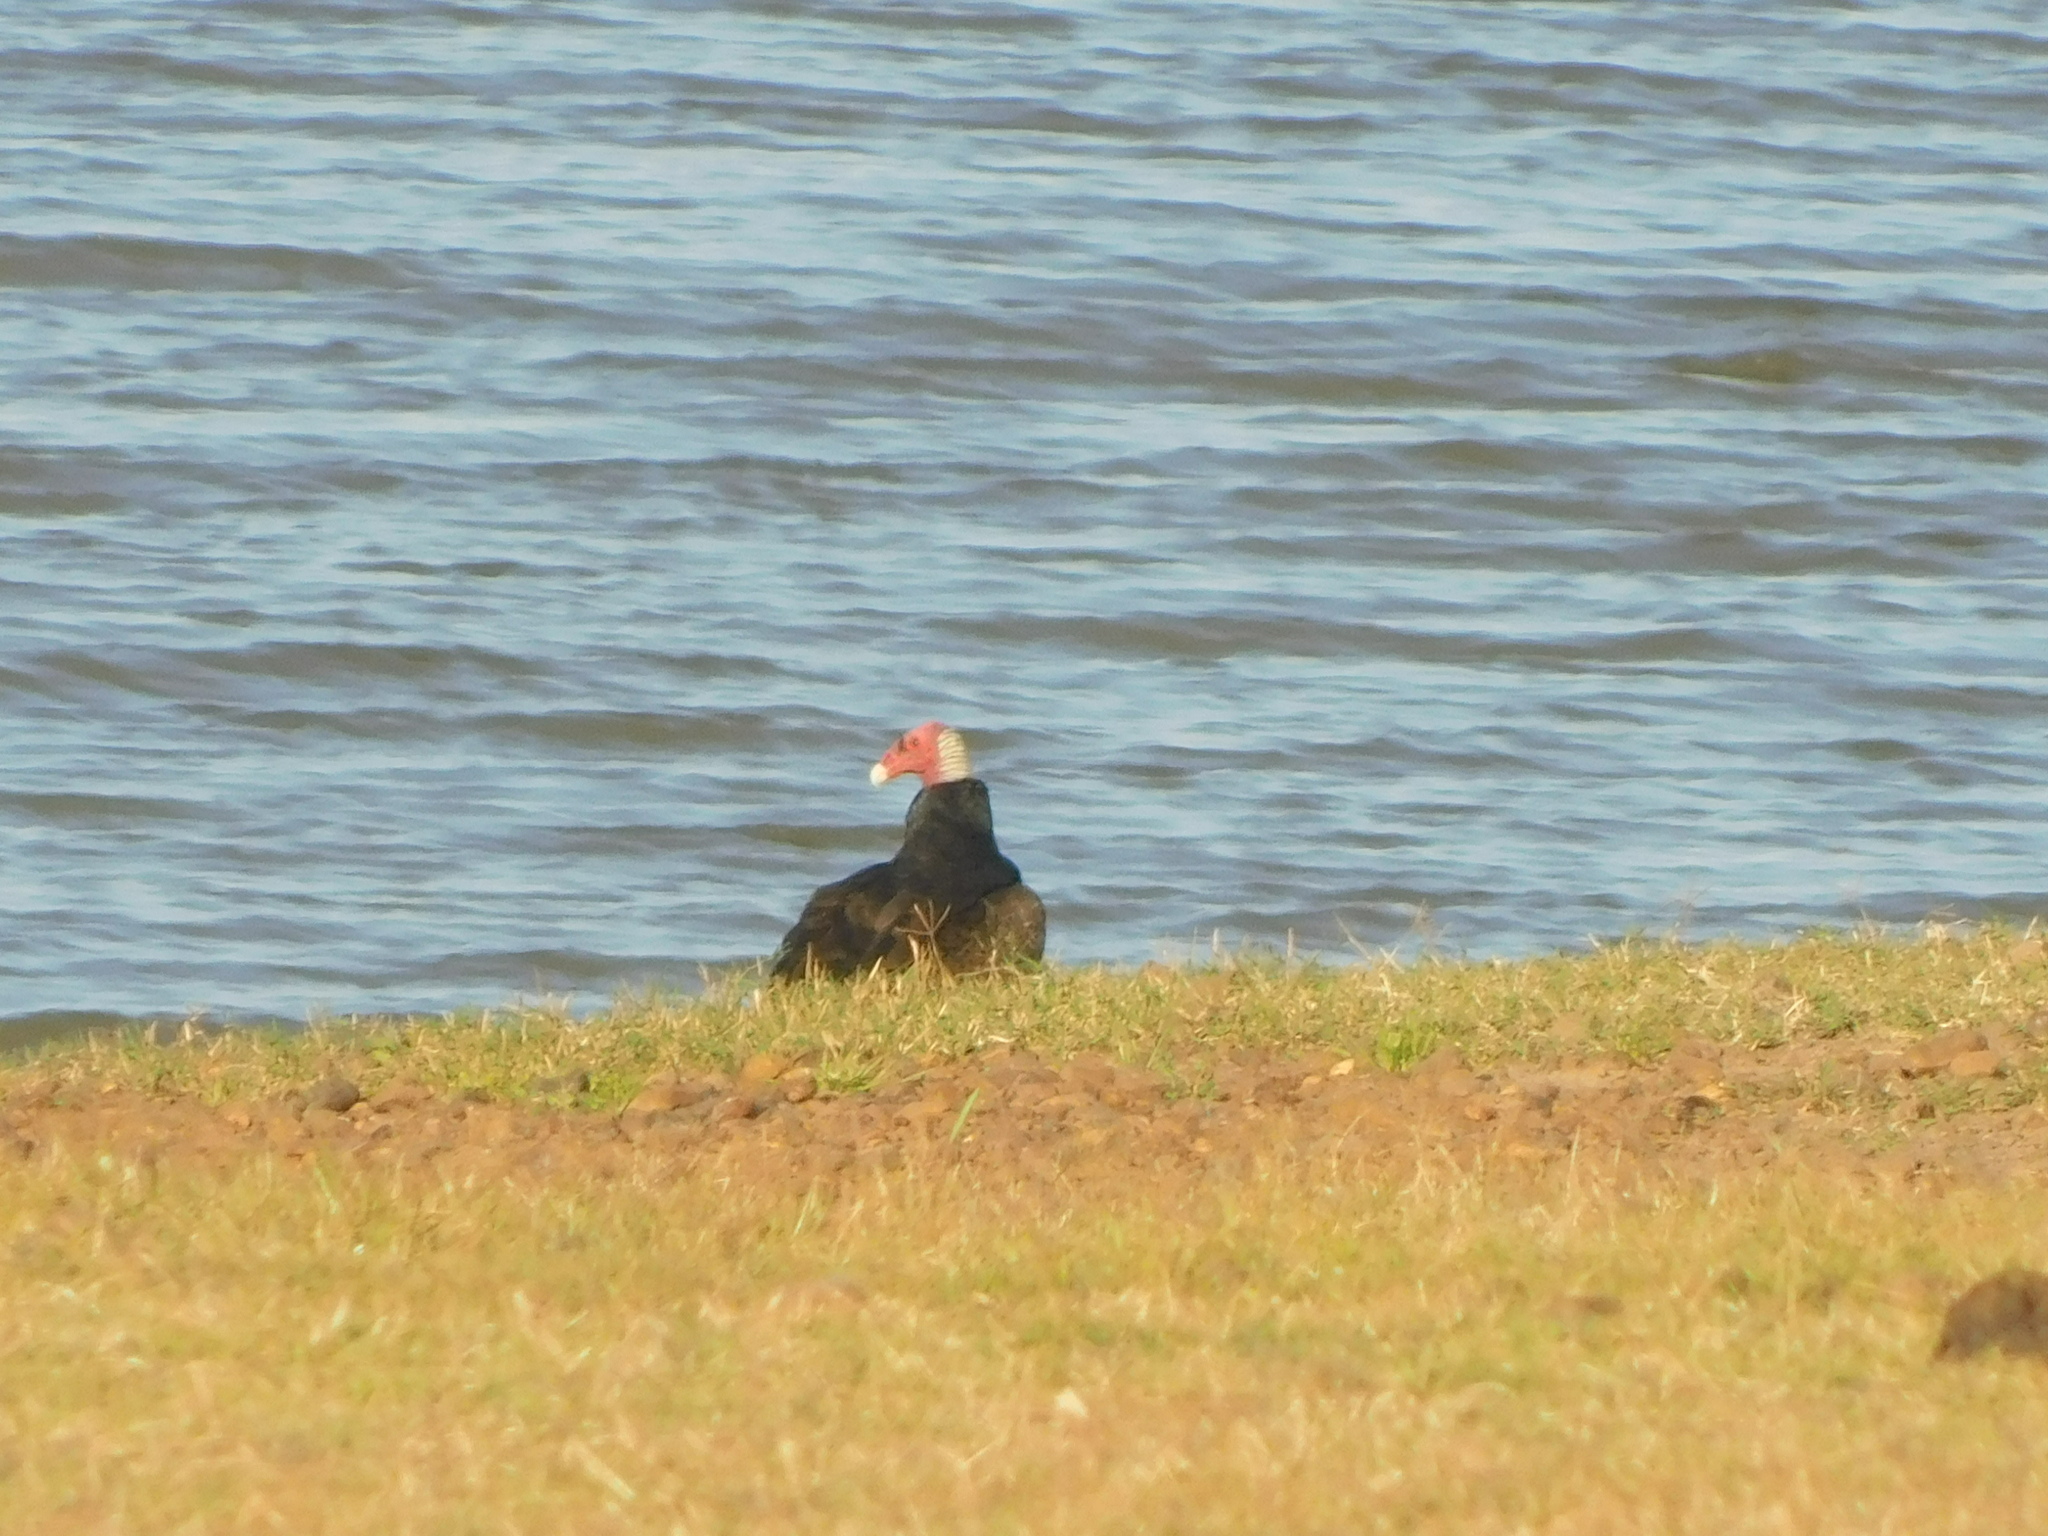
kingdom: Animalia
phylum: Chordata
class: Aves
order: Accipitriformes
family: Cathartidae
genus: Cathartes
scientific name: Cathartes aura
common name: Turkey vulture
